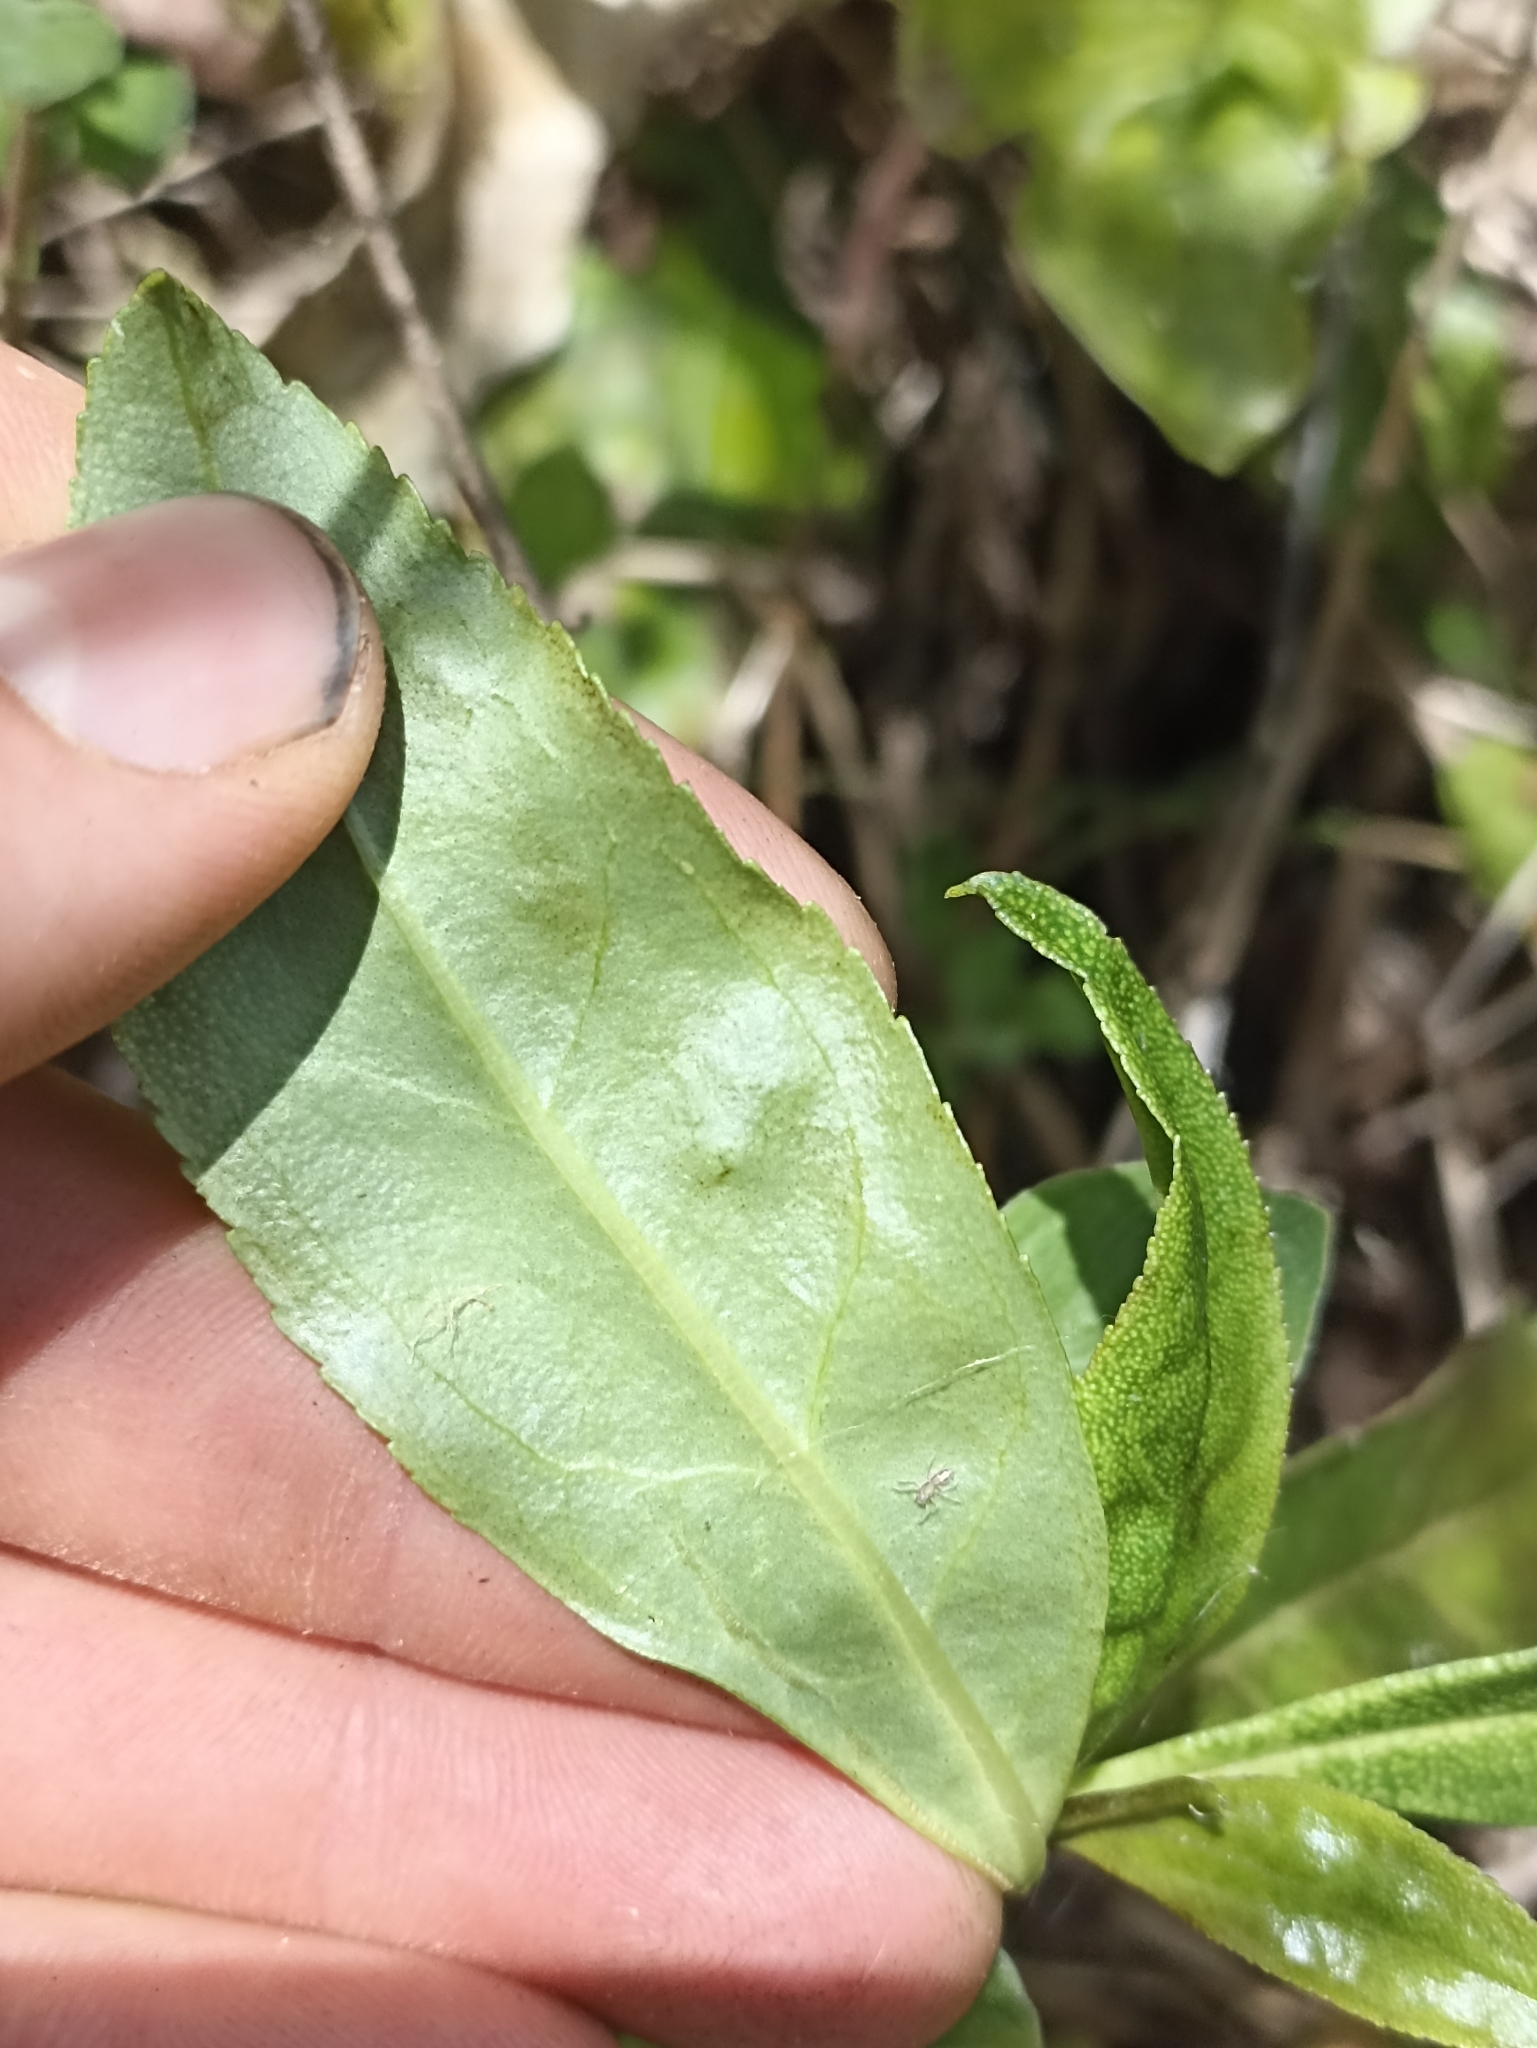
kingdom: Plantae
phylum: Tracheophyta
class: Magnoliopsida
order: Lamiales
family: Scrophulariaceae
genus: Myoporum
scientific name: Myoporum laetum
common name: Ngaio tree
